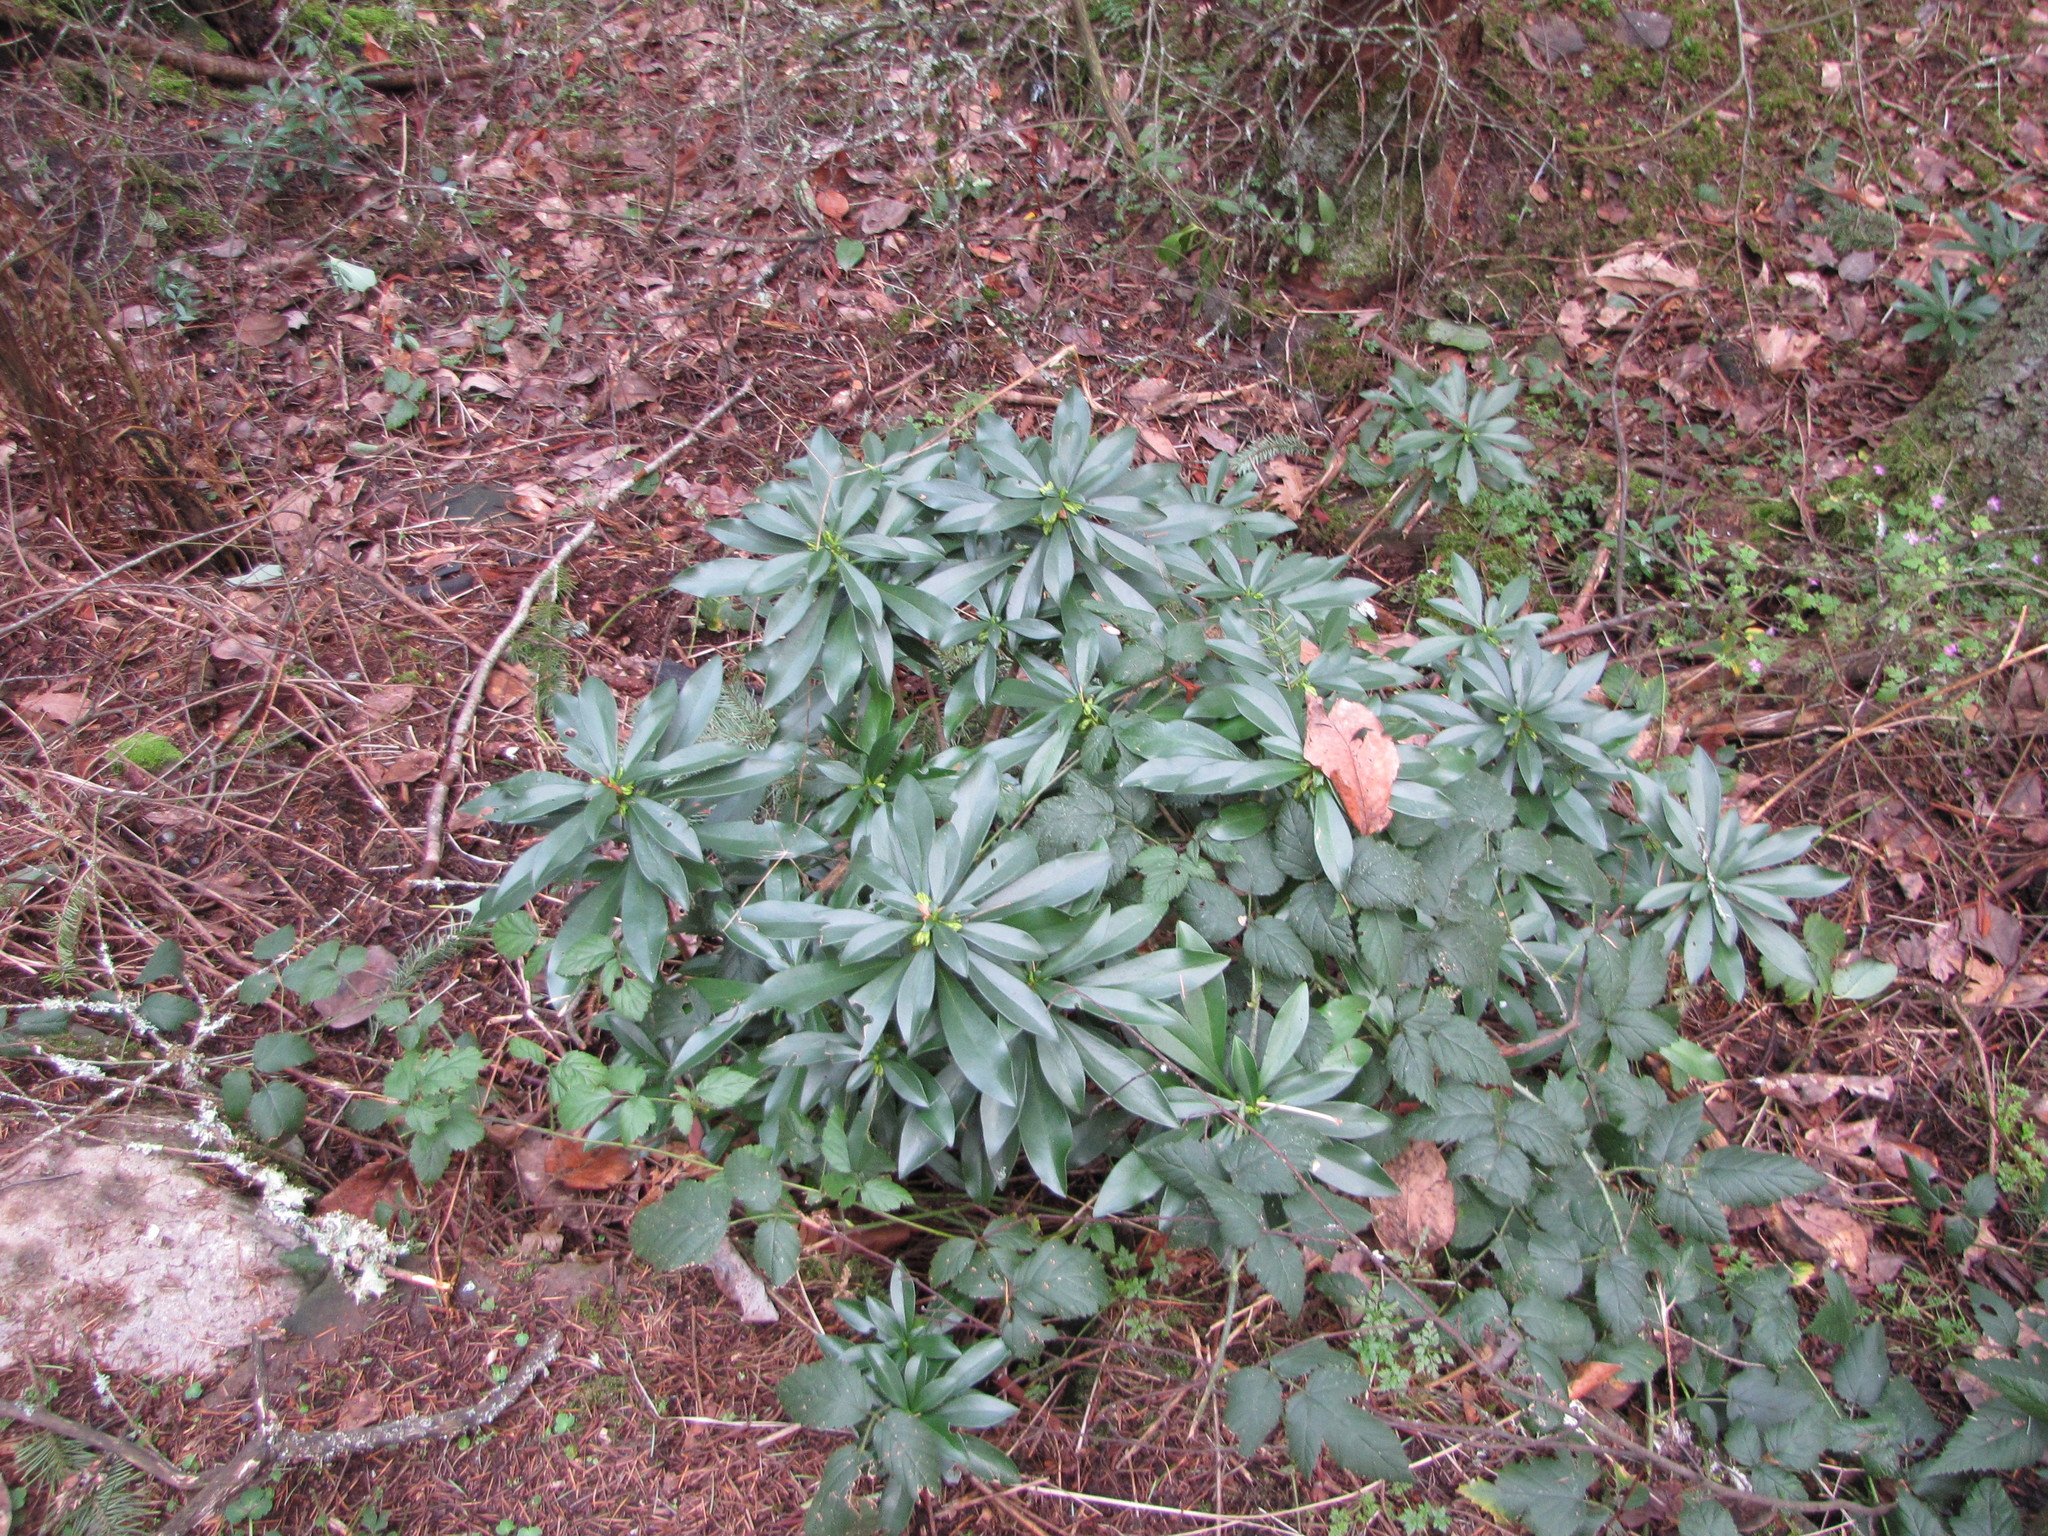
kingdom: Plantae
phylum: Tracheophyta
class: Magnoliopsida
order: Malvales
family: Thymelaeaceae
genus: Daphne
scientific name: Daphne laureola
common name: Spurge-laurel
